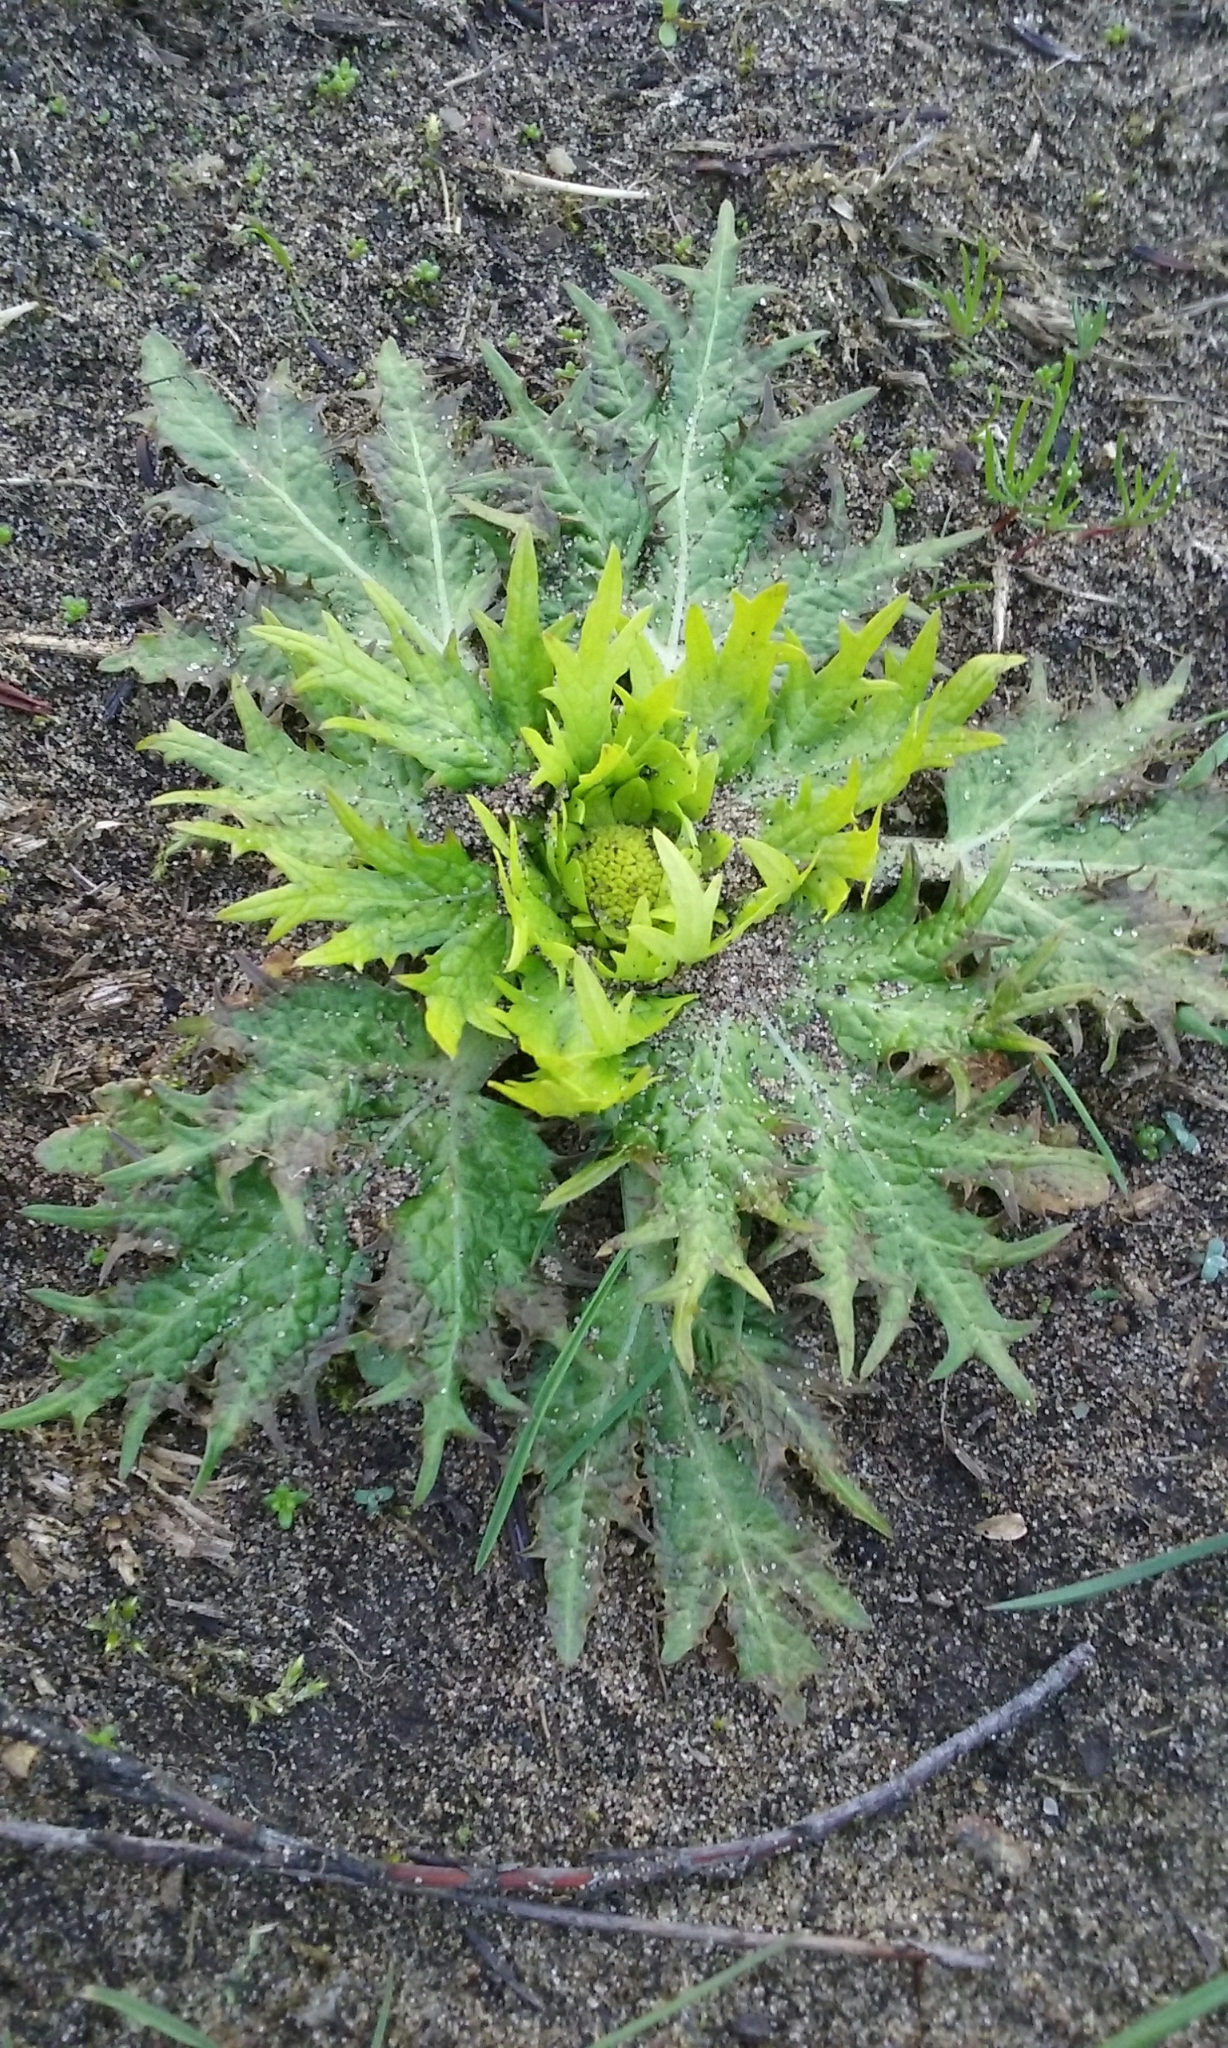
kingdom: Plantae
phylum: Tracheophyta
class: Magnoliopsida
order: Apiales
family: Apiaceae
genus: Sanicula
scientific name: Sanicula arctopoides
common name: Footsteps-of-spring
